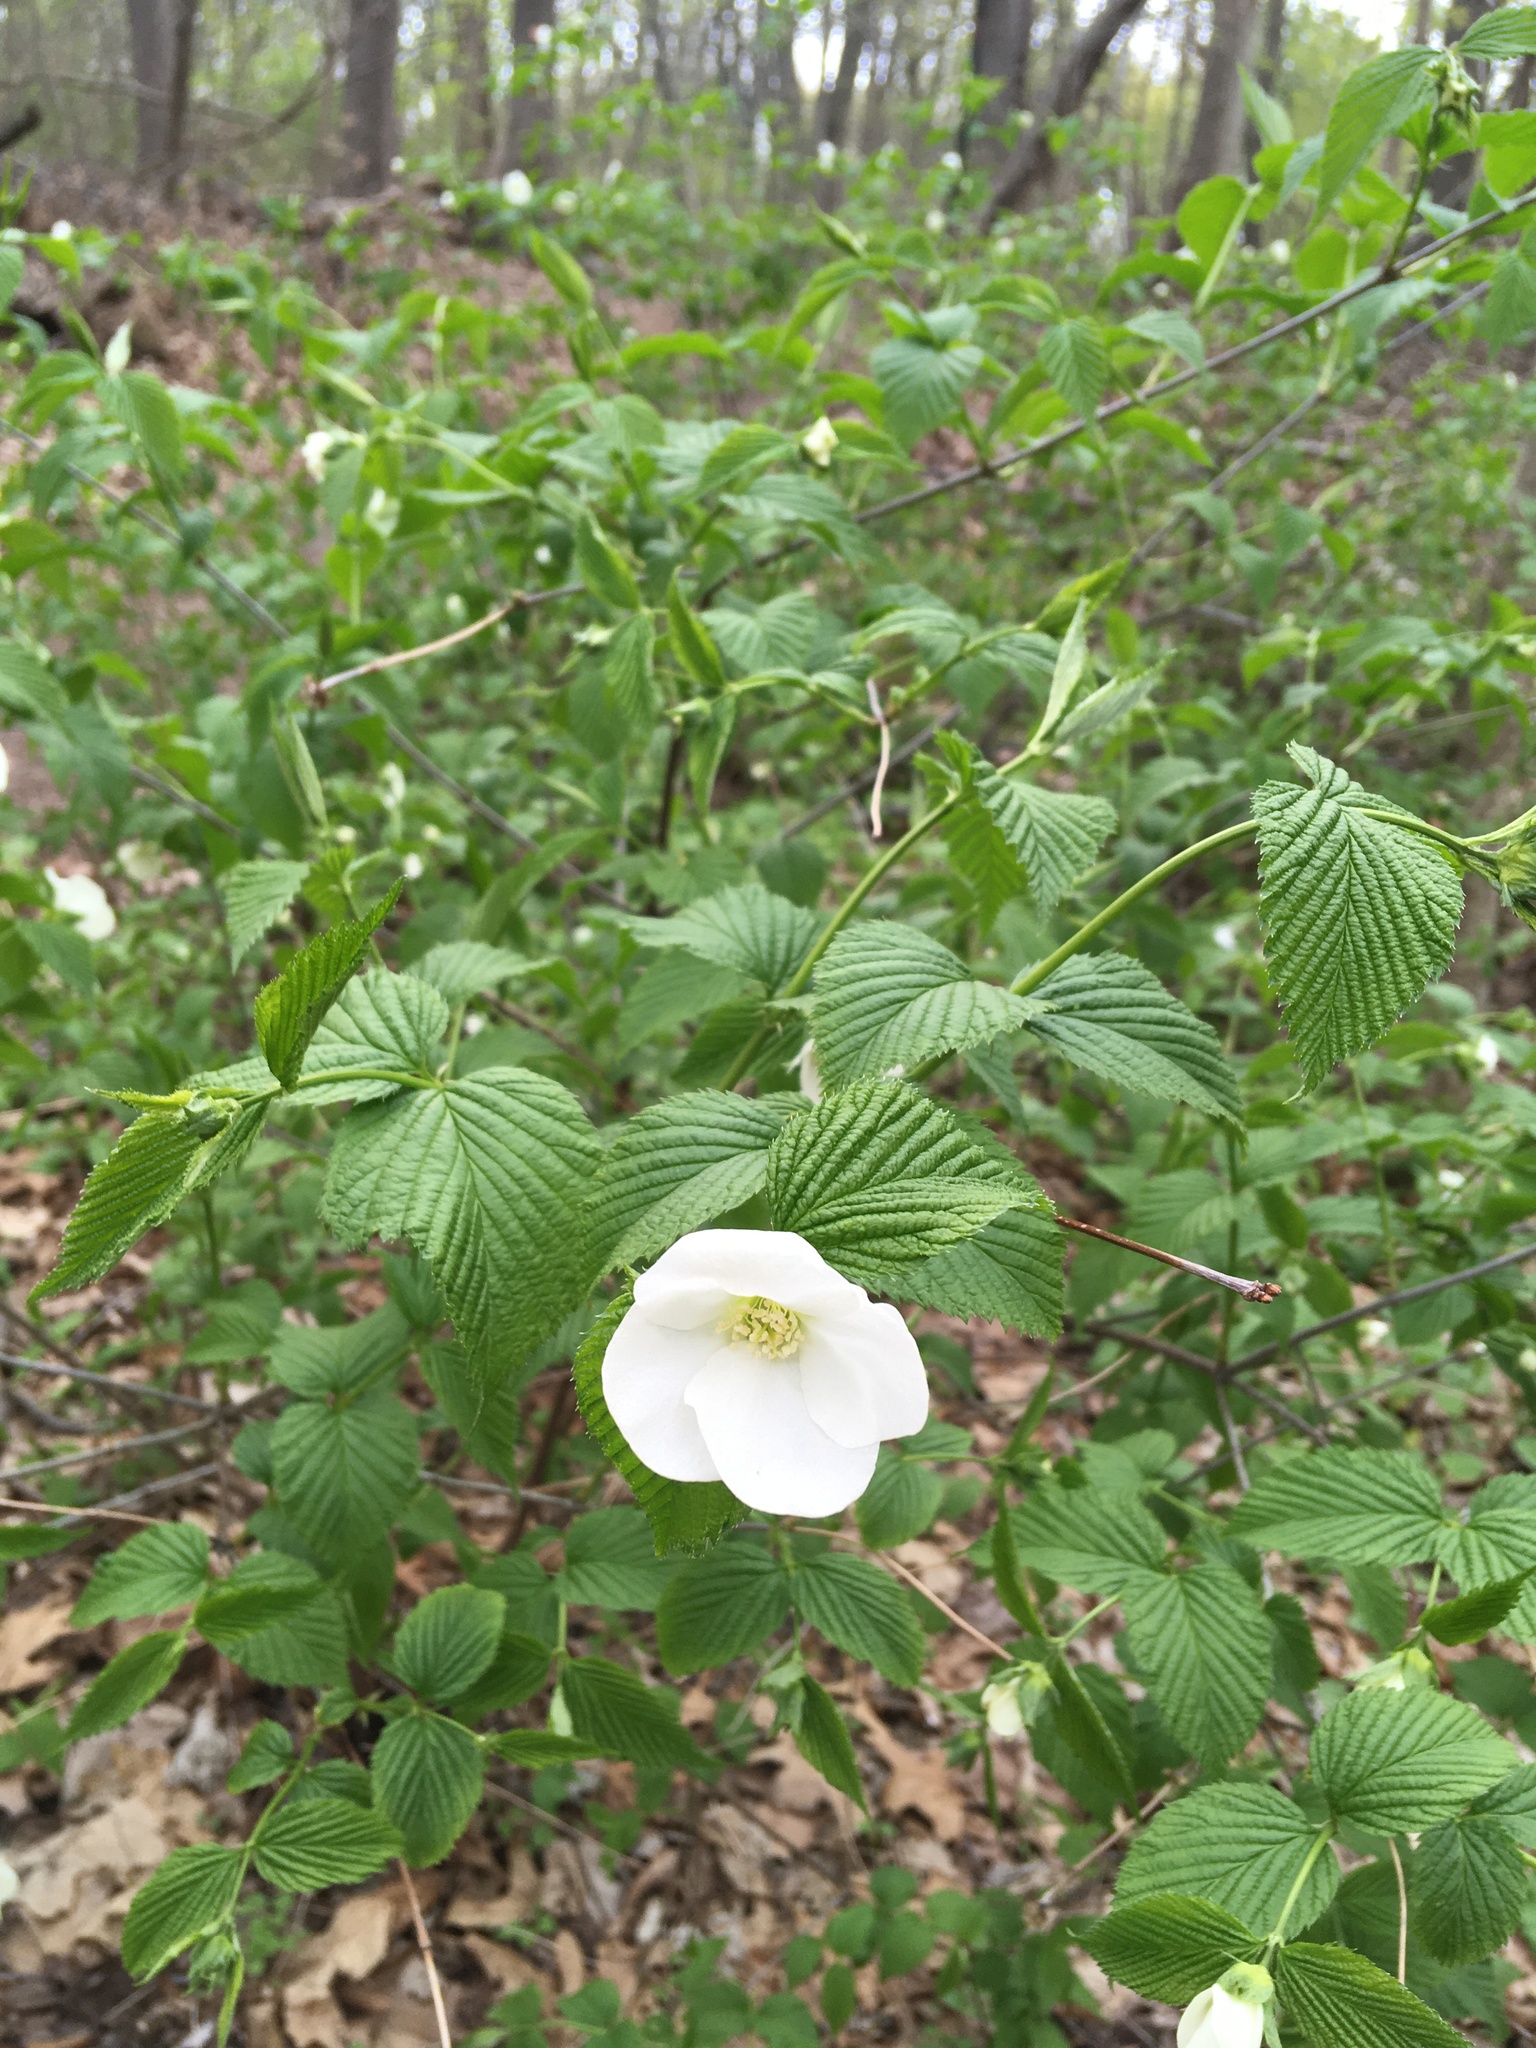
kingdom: Plantae
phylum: Tracheophyta
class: Magnoliopsida
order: Rosales
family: Rosaceae
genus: Rhodotypos
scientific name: Rhodotypos scandens
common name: Jetbead
